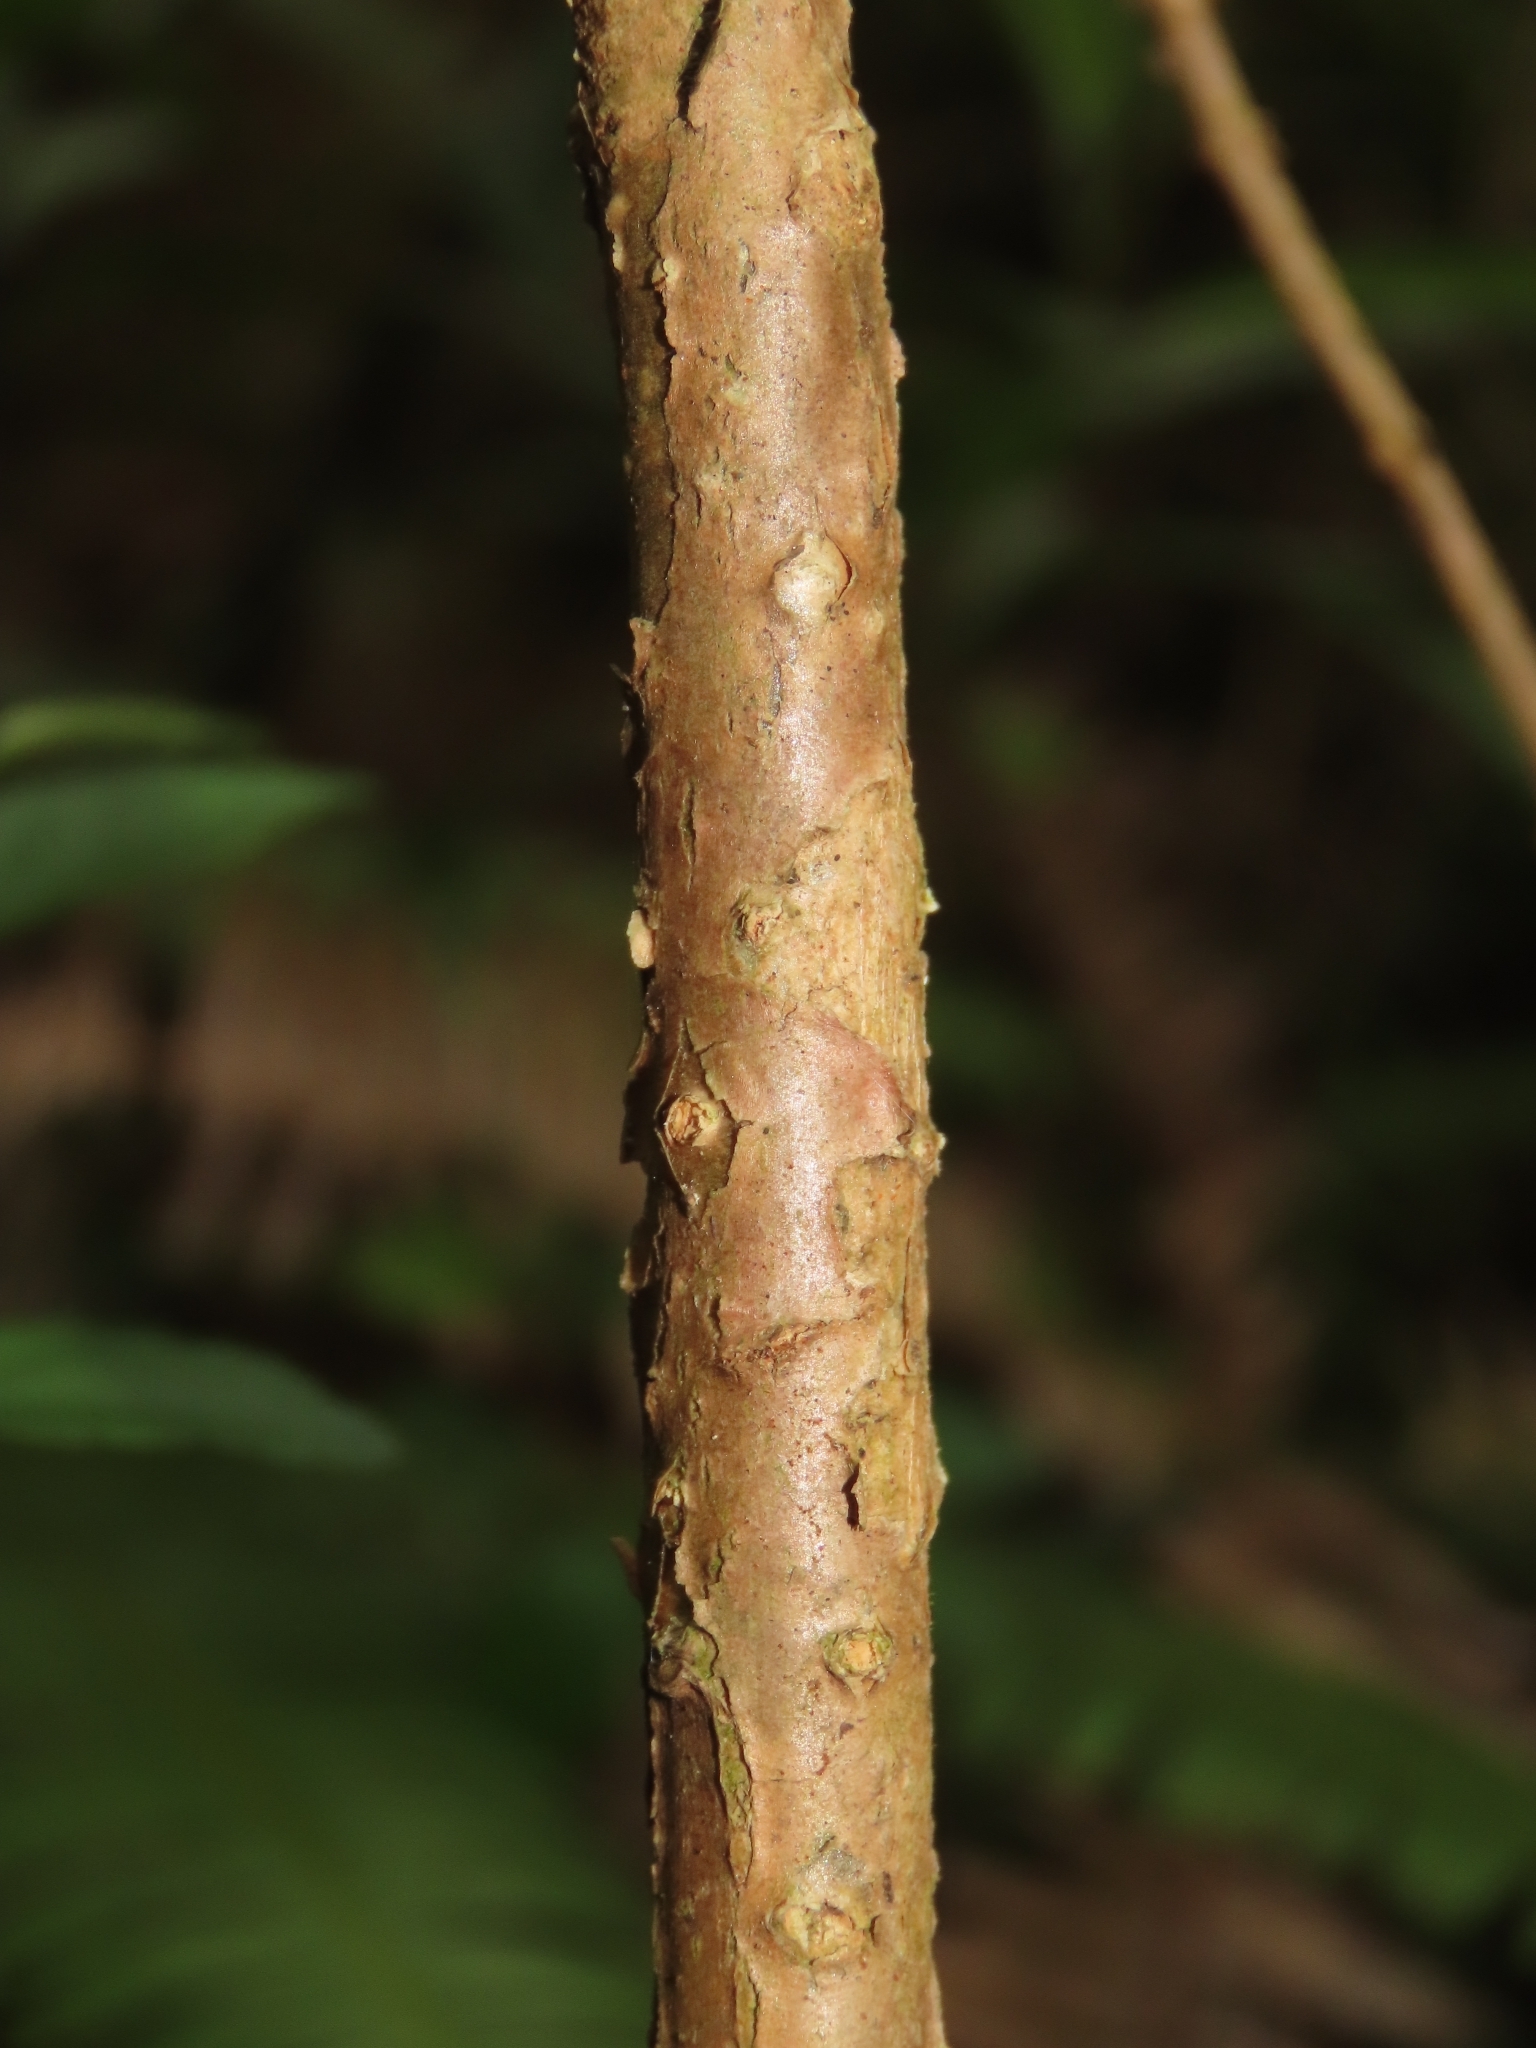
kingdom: Plantae
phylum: Tracheophyta
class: Magnoliopsida
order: Lamiales
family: Oleaceae
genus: Chionanthus
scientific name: Chionanthus retusus
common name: Chinese fringetree
